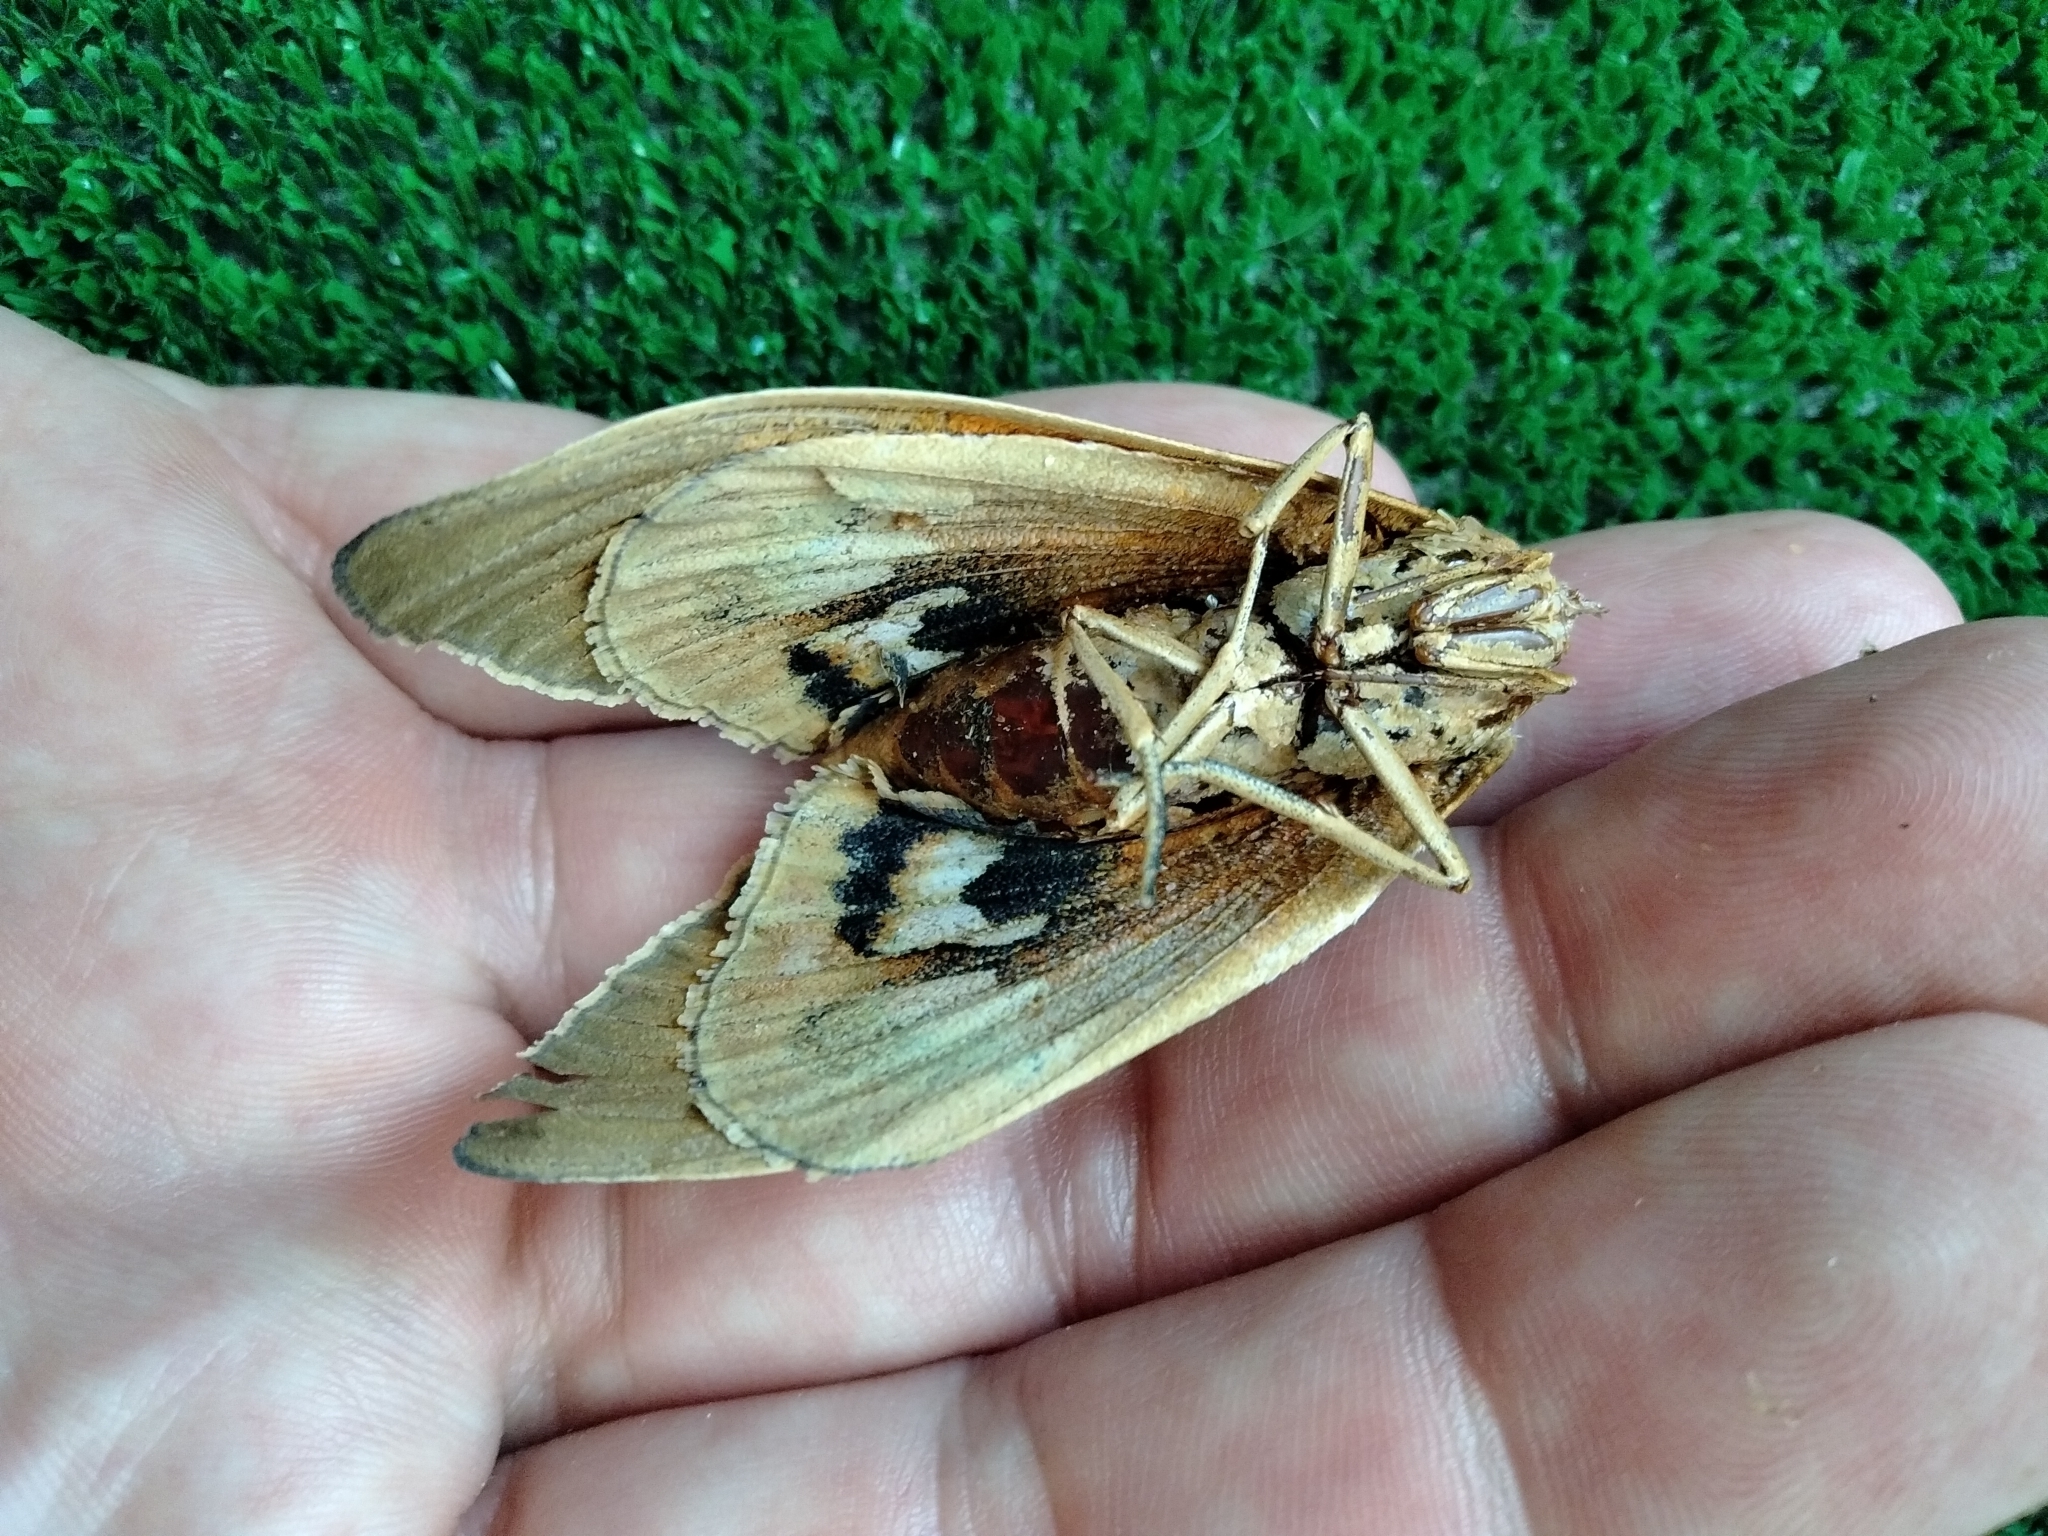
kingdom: Animalia
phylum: Arthropoda
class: Insecta
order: Lepidoptera
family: Castniidae
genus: Paysandisia
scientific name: Paysandisia archon
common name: Palm moth
